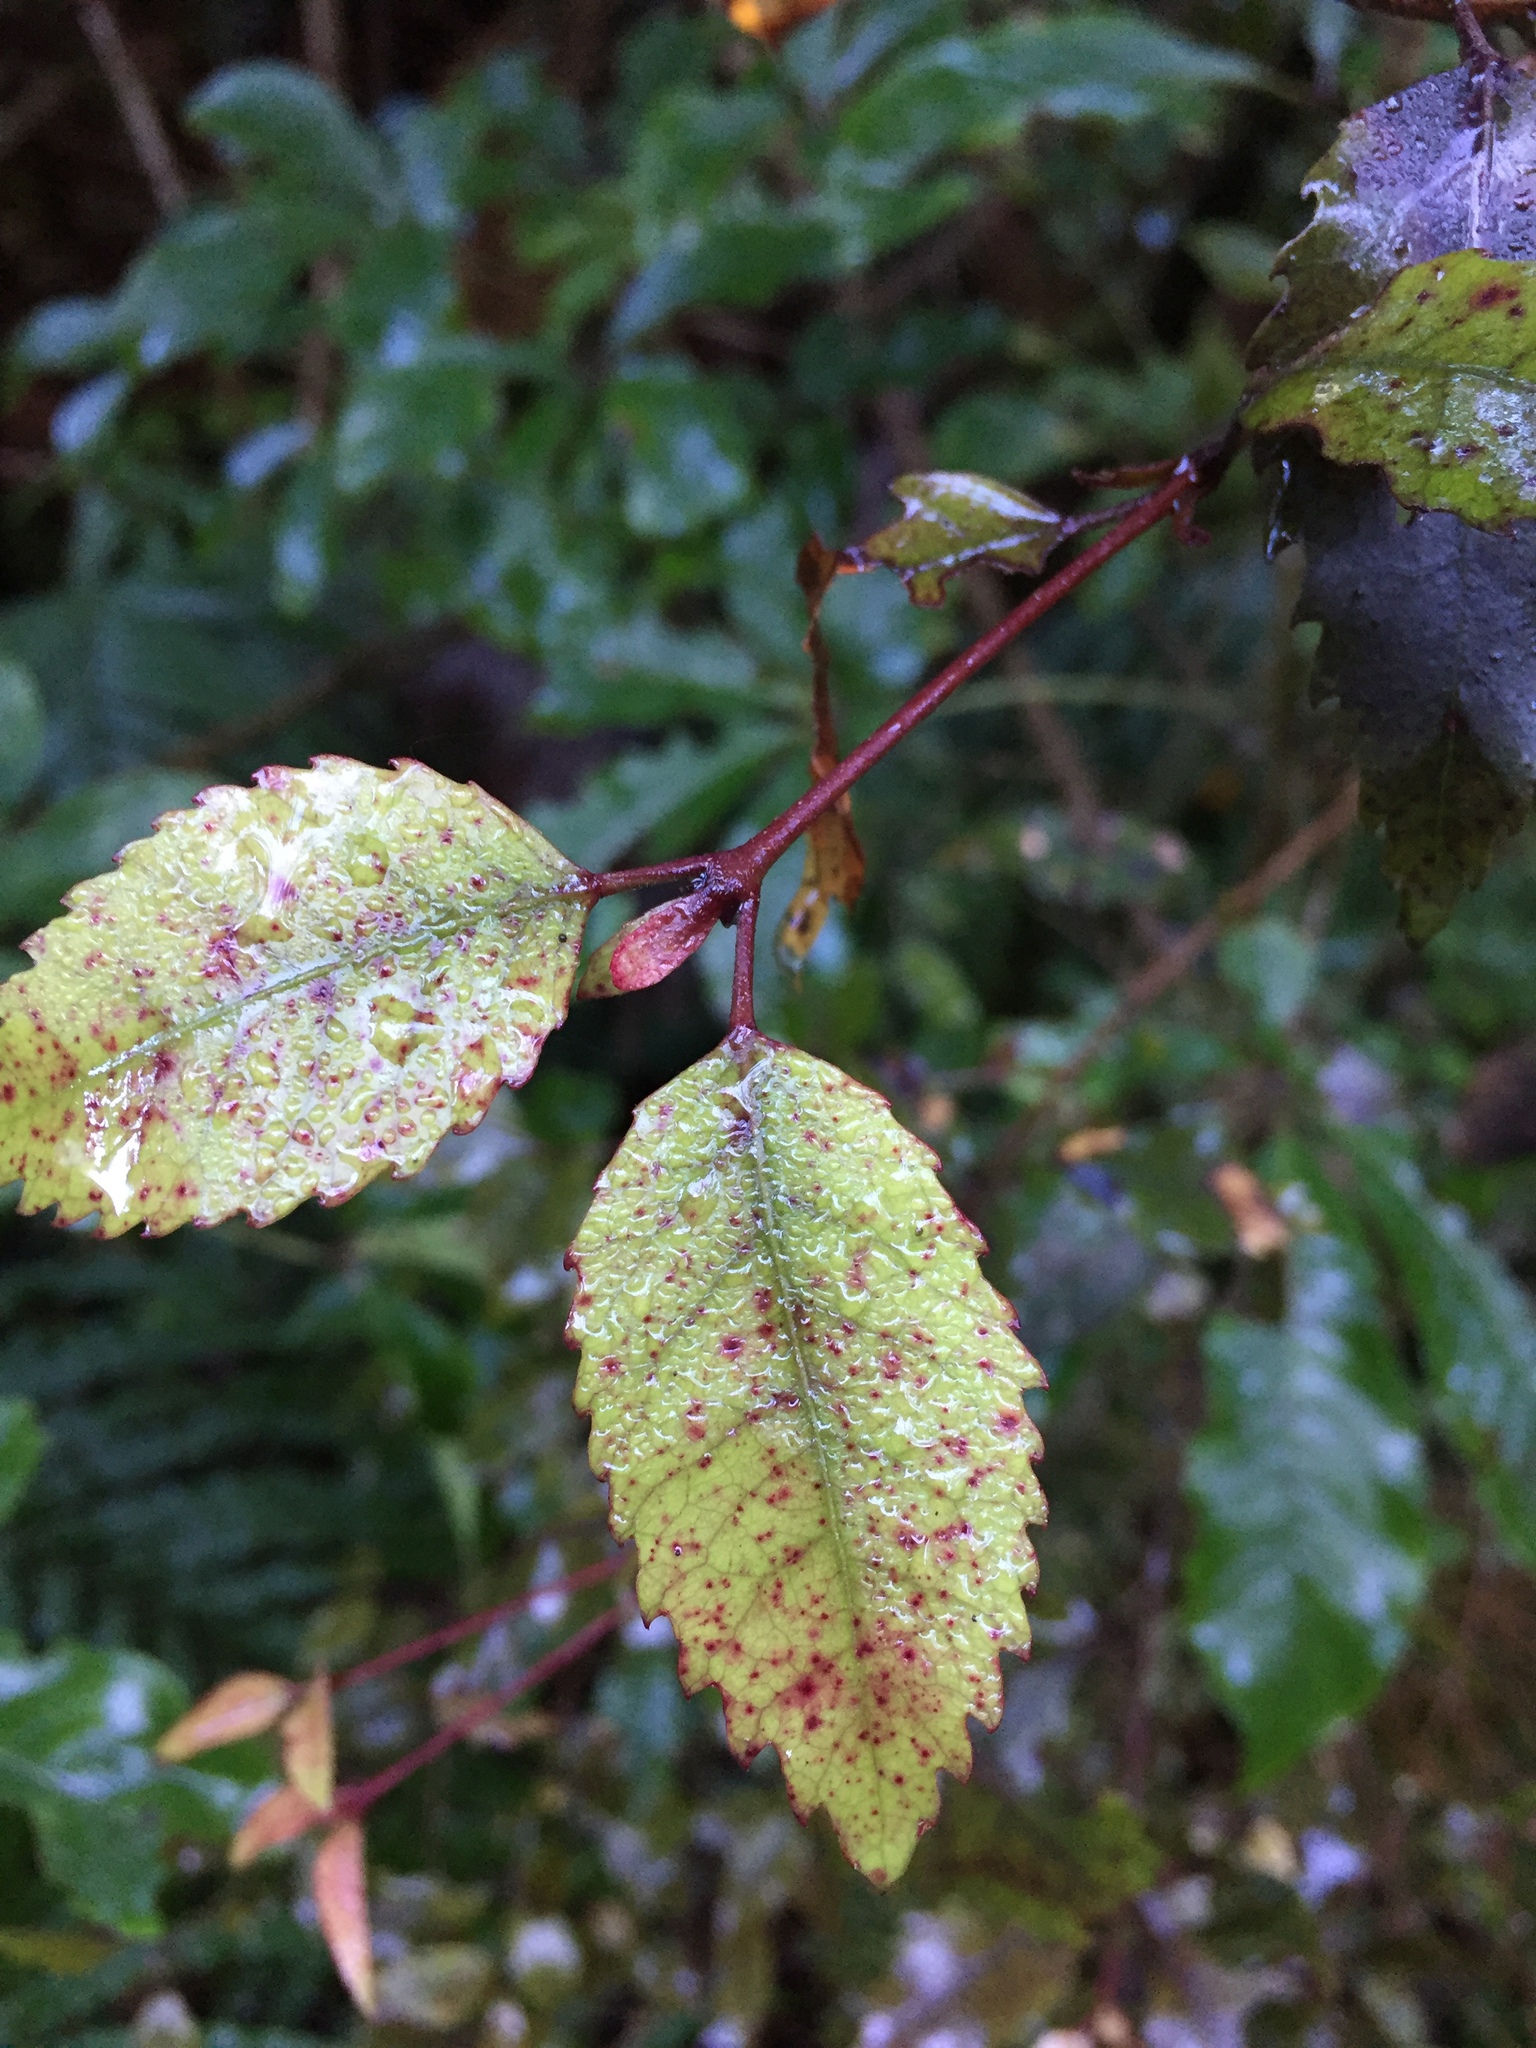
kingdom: Plantae
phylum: Tracheophyta
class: Magnoliopsida
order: Oxalidales
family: Cunoniaceae
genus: Pterophylla
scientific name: Pterophylla racemosa
